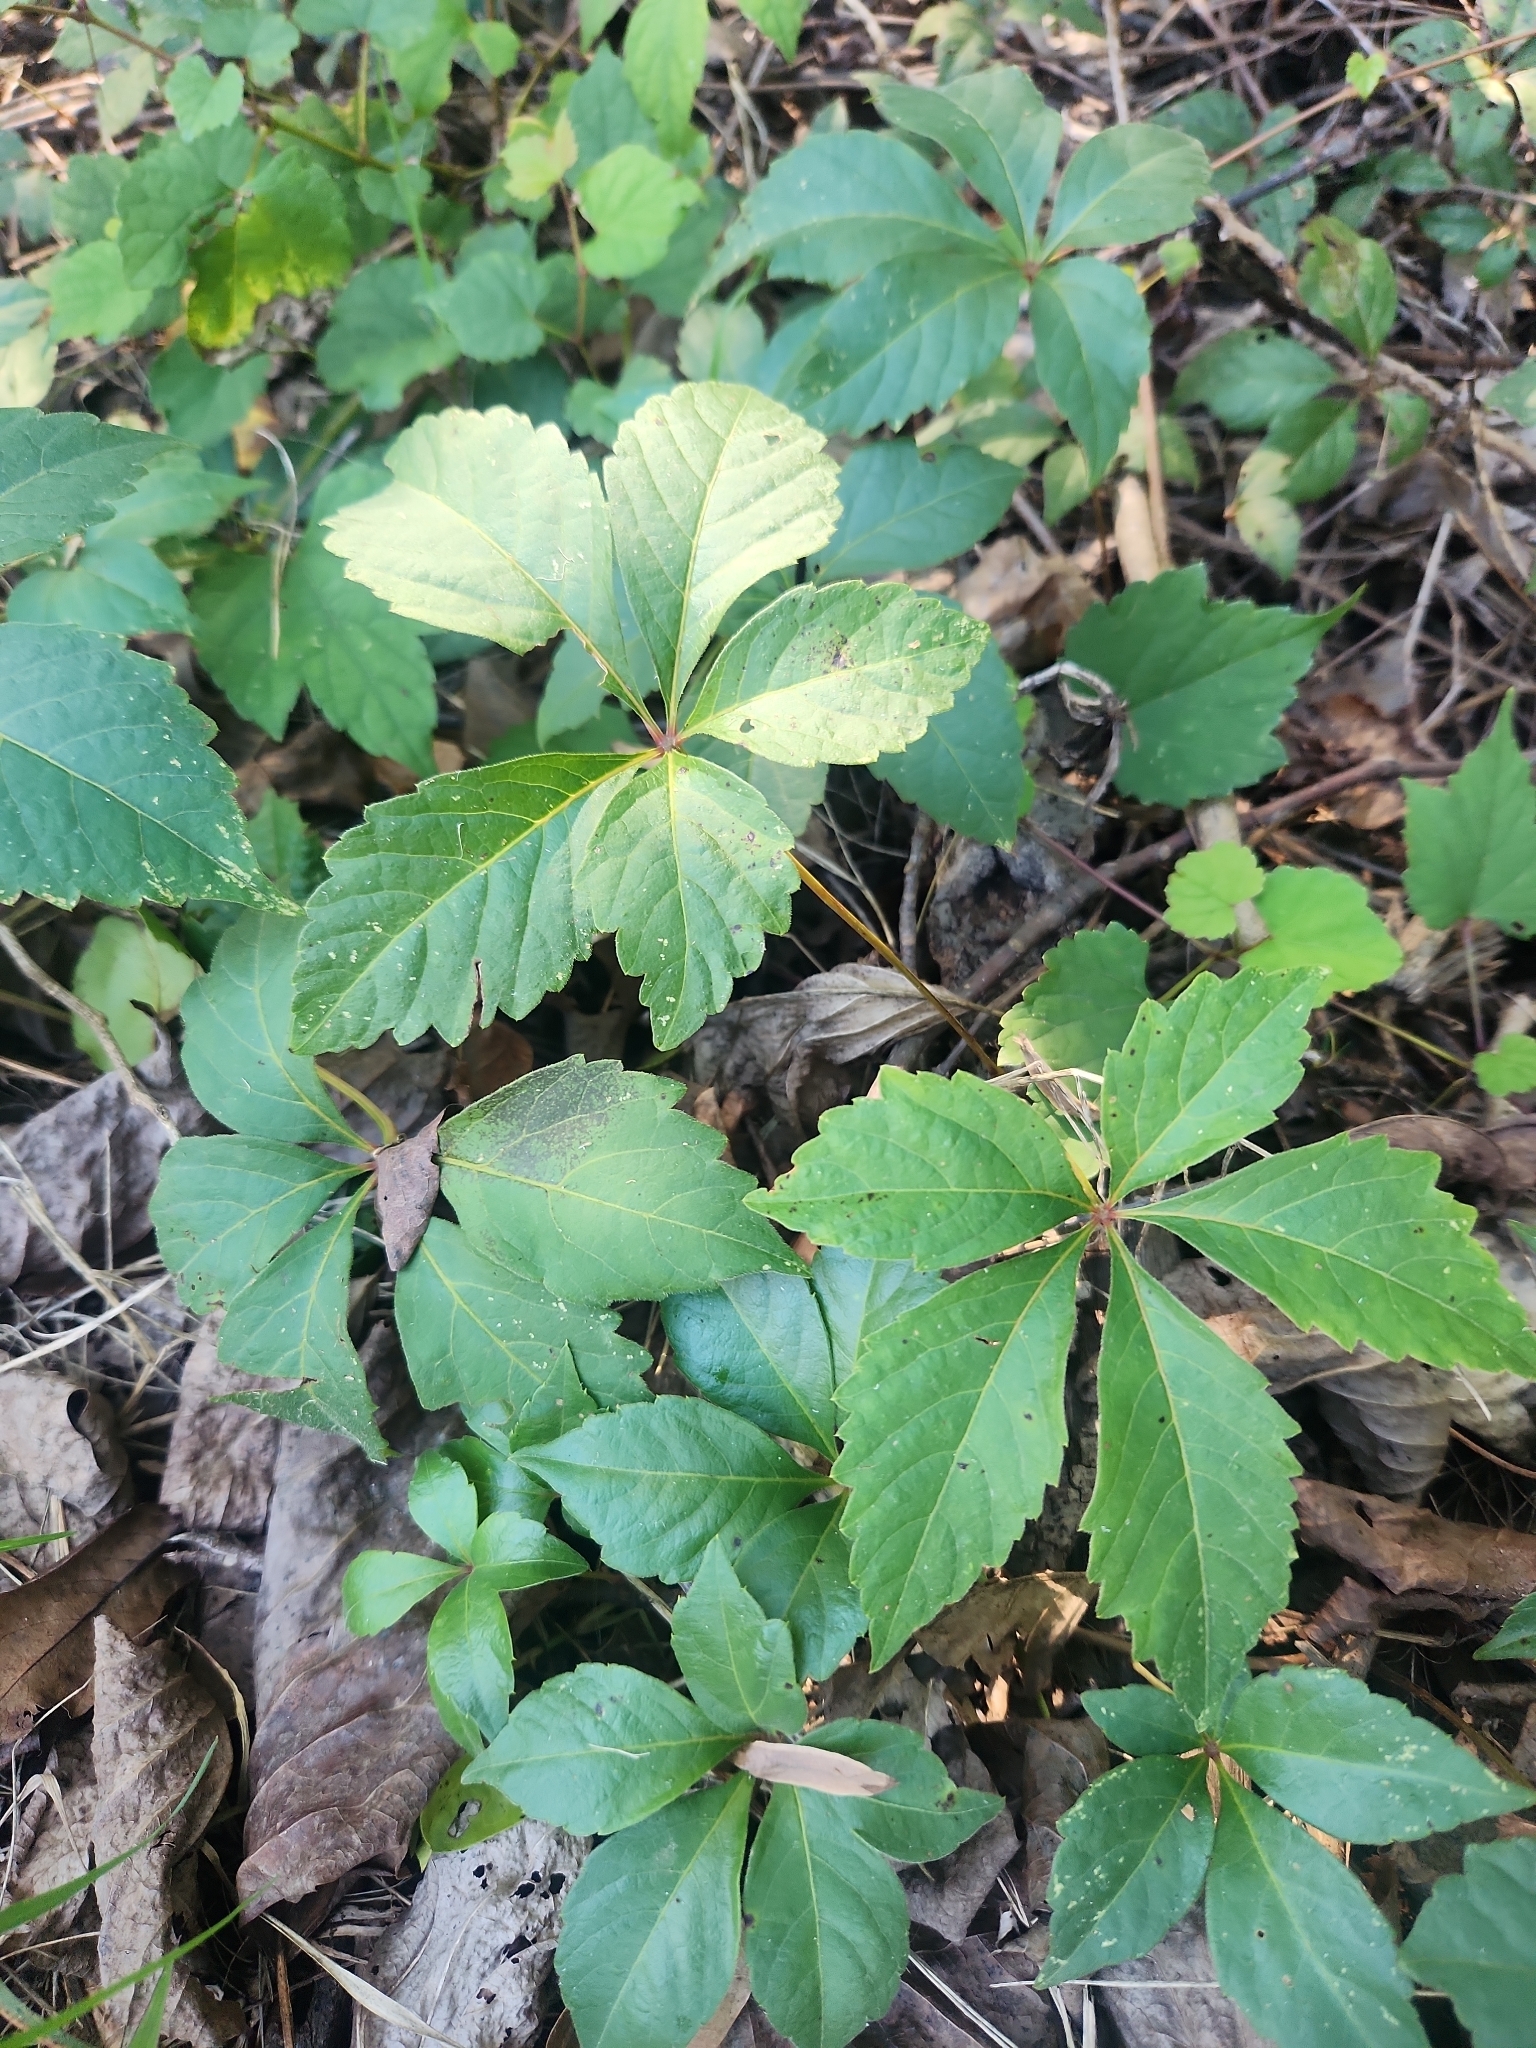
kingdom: Plantae
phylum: Tracheophyta
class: Magnoliopsida
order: Vitales
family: Vitaceae
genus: Parthenocissus
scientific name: Parthenocissus quinquefolia
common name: Virginia-creeper
